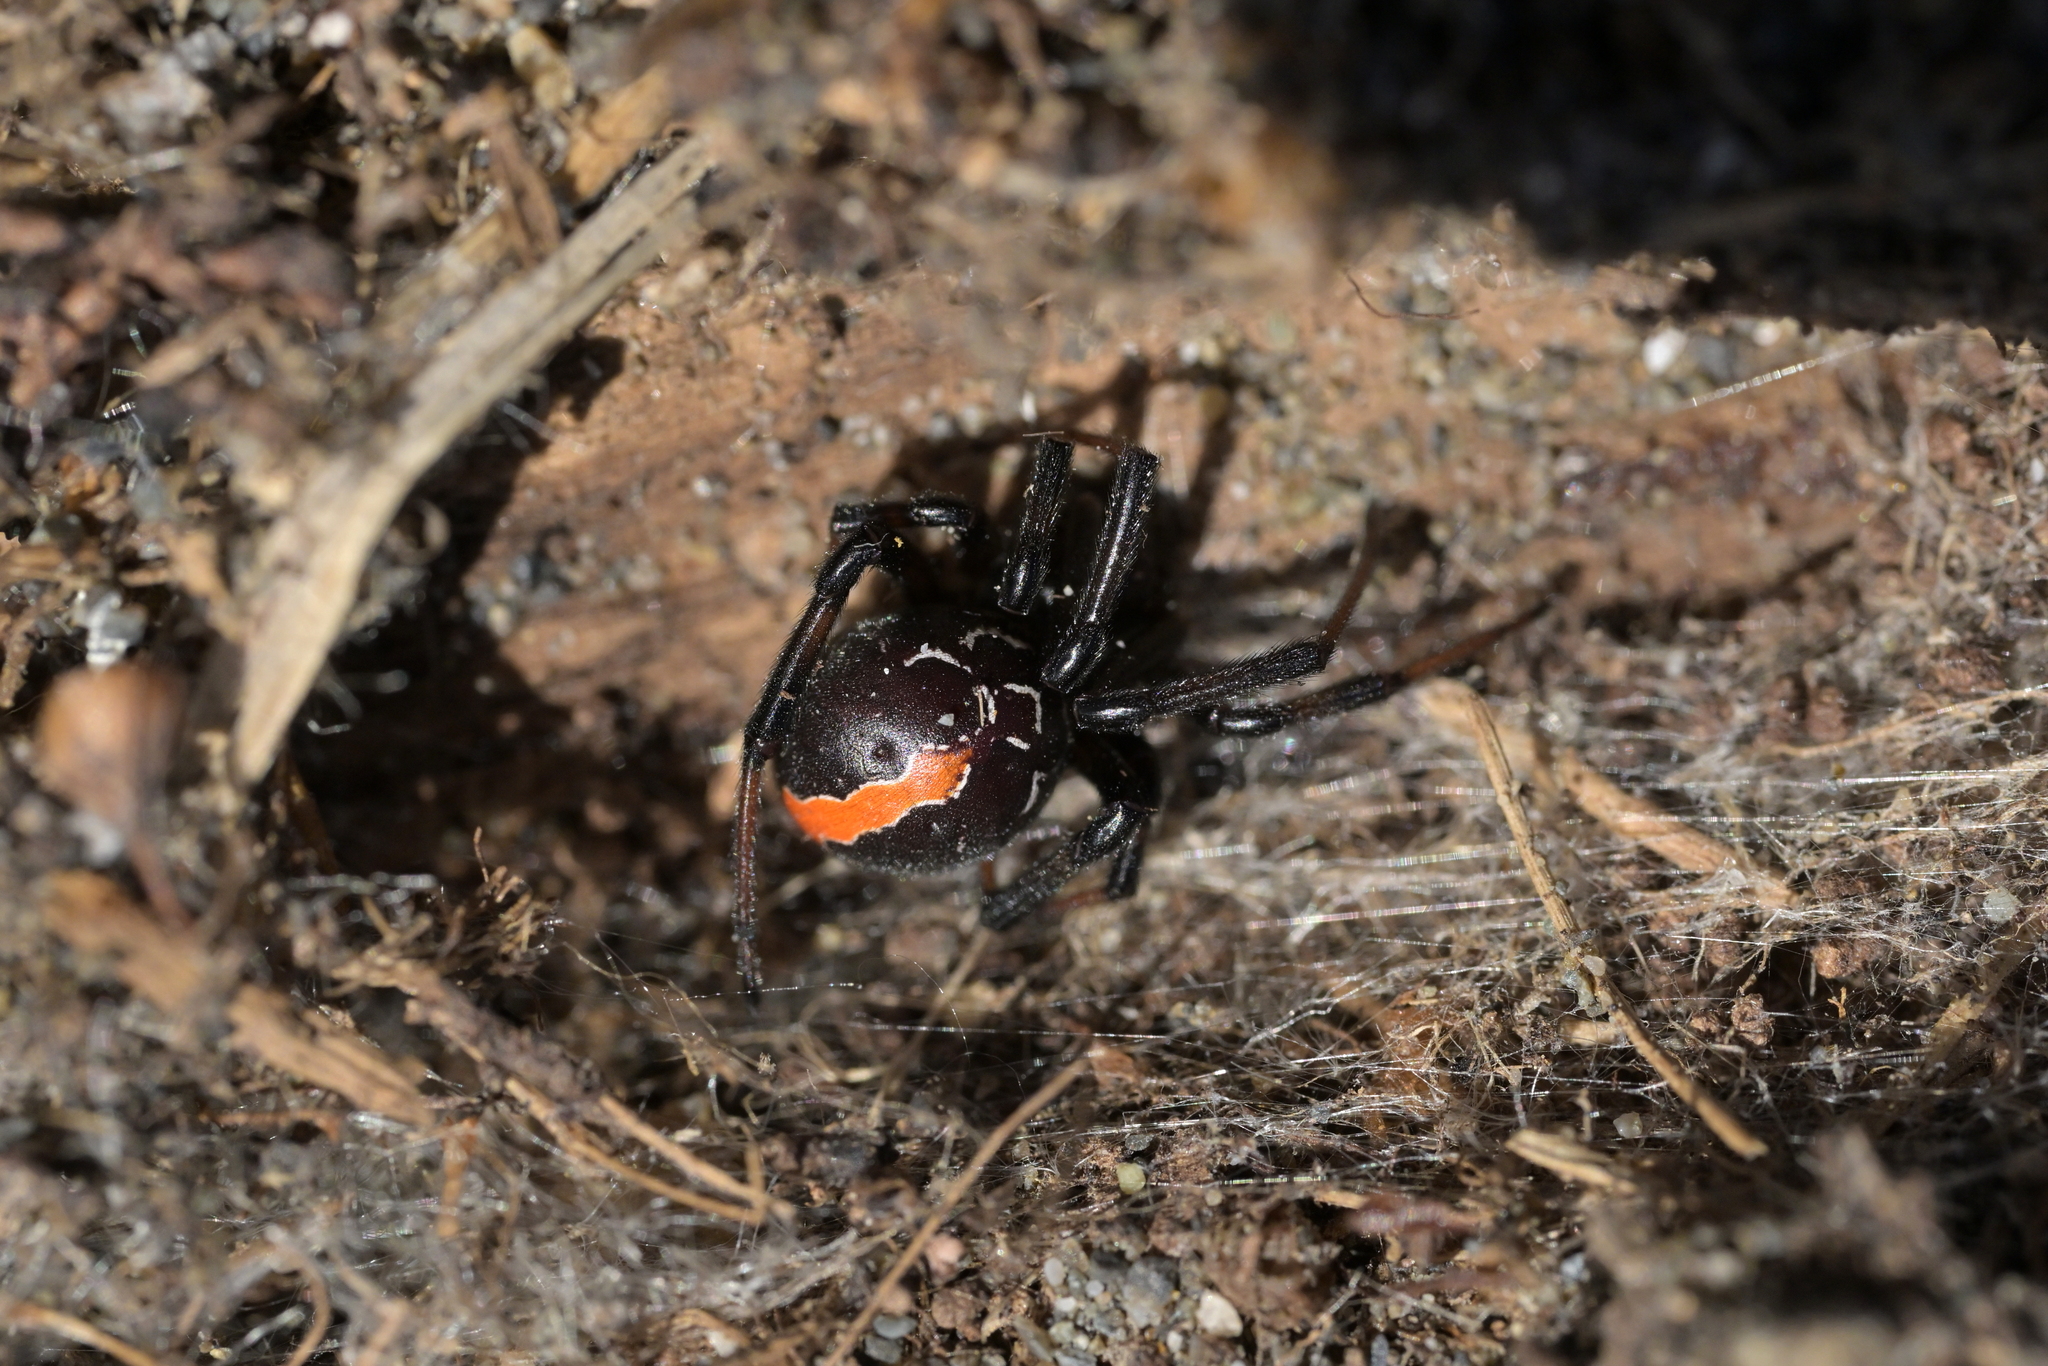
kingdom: Animalia
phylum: Arthropoda
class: Arachnida
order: Araneae
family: Theridiidae
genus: Latrodectus
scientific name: Latrodectus katipo
